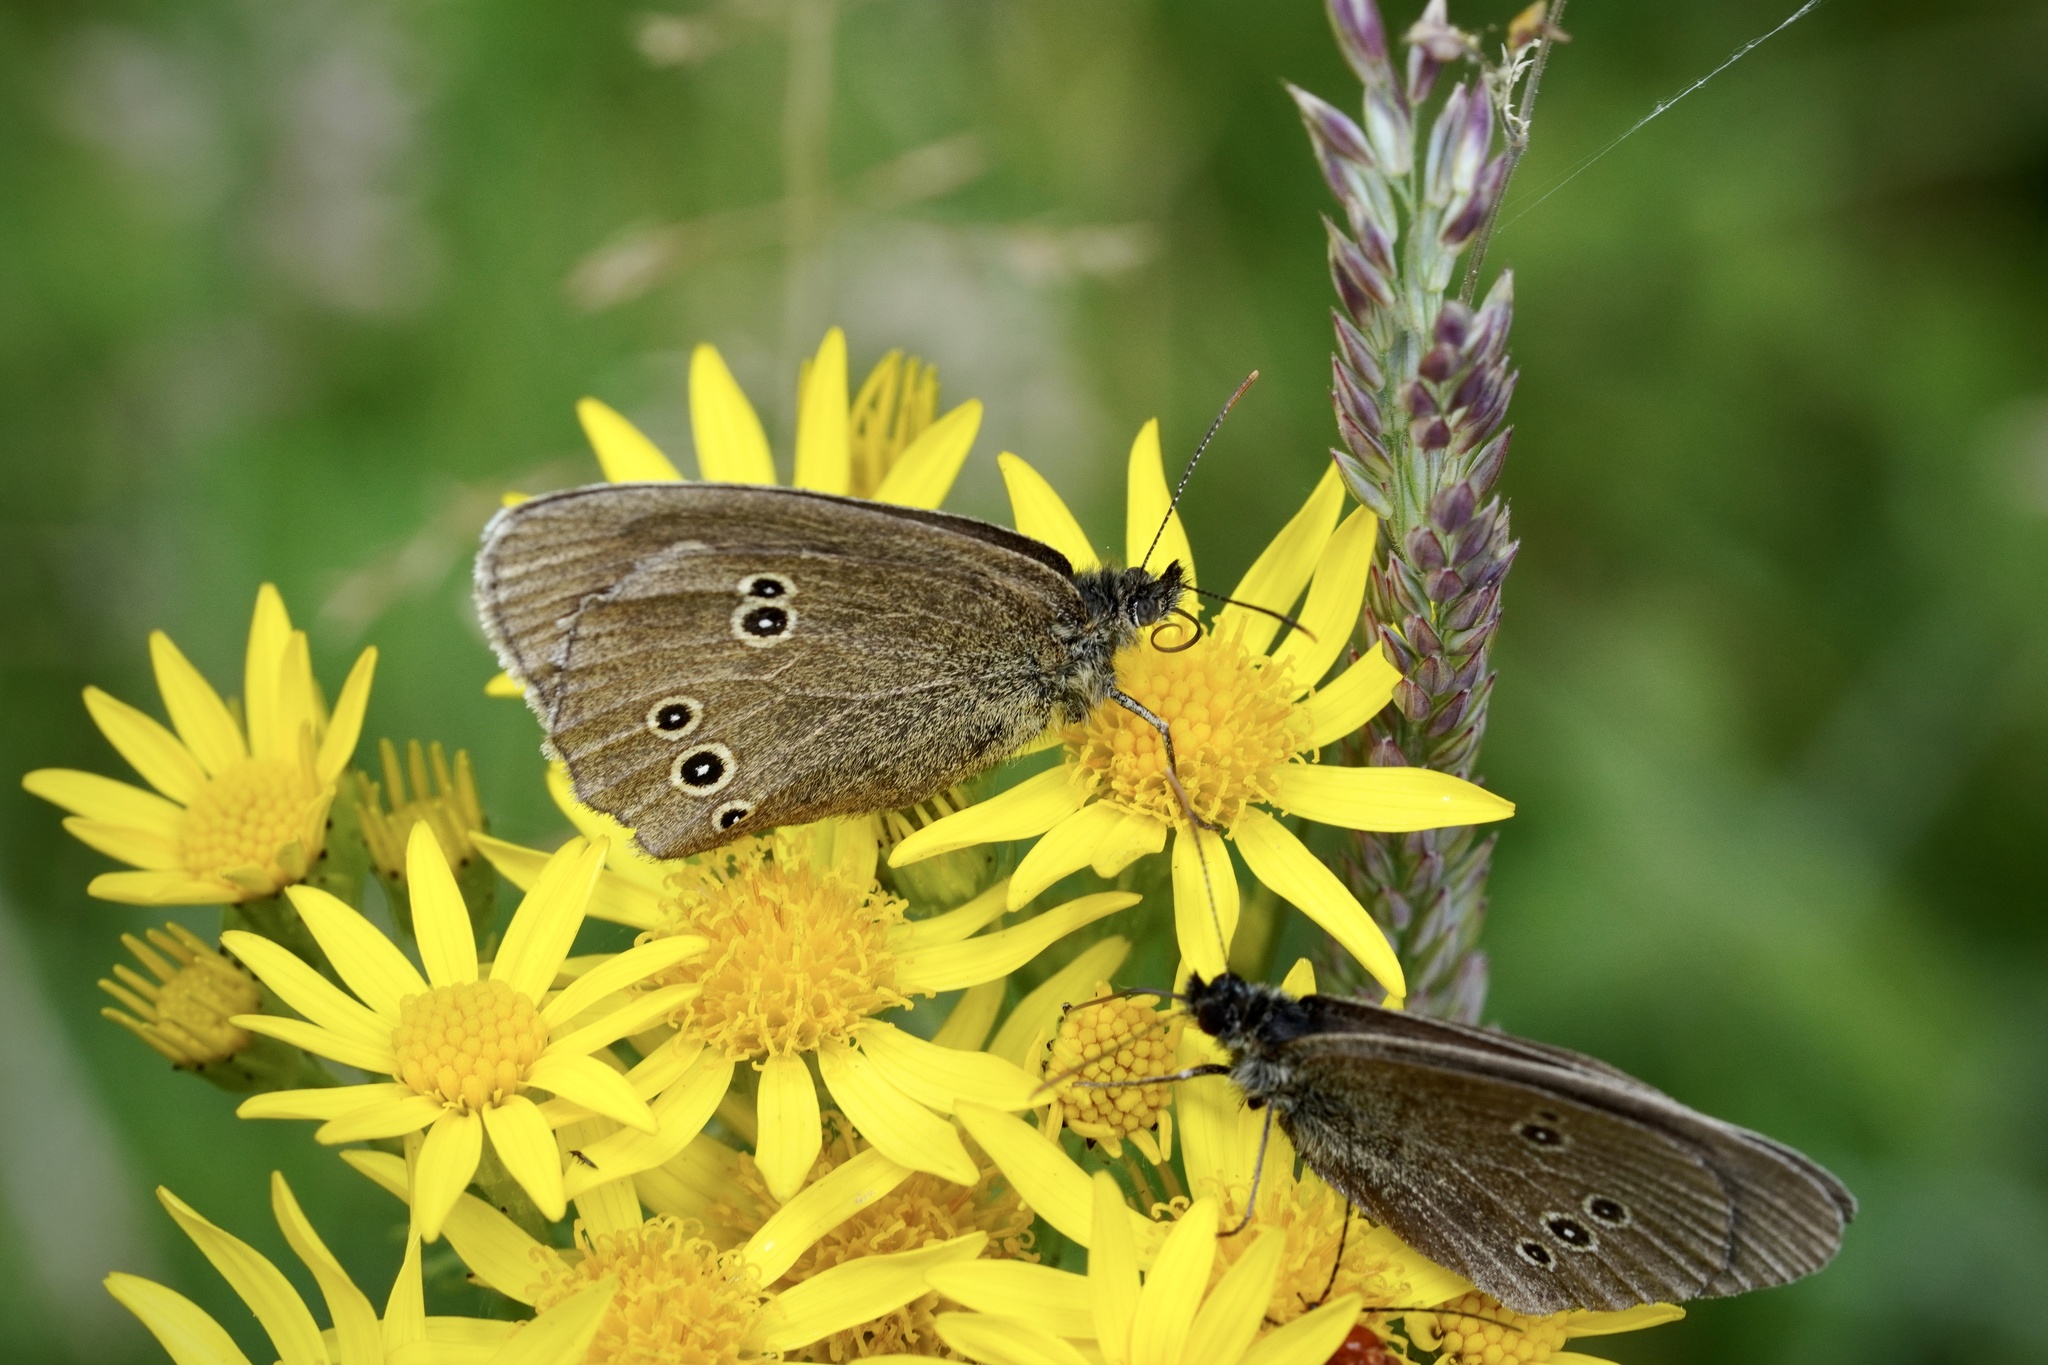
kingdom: Animalia
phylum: Arthropoda
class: Insecta
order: Lepidoptera
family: Nymphalidae
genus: Aphantopus
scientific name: Aphantopus hyperantus
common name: Ringlet
